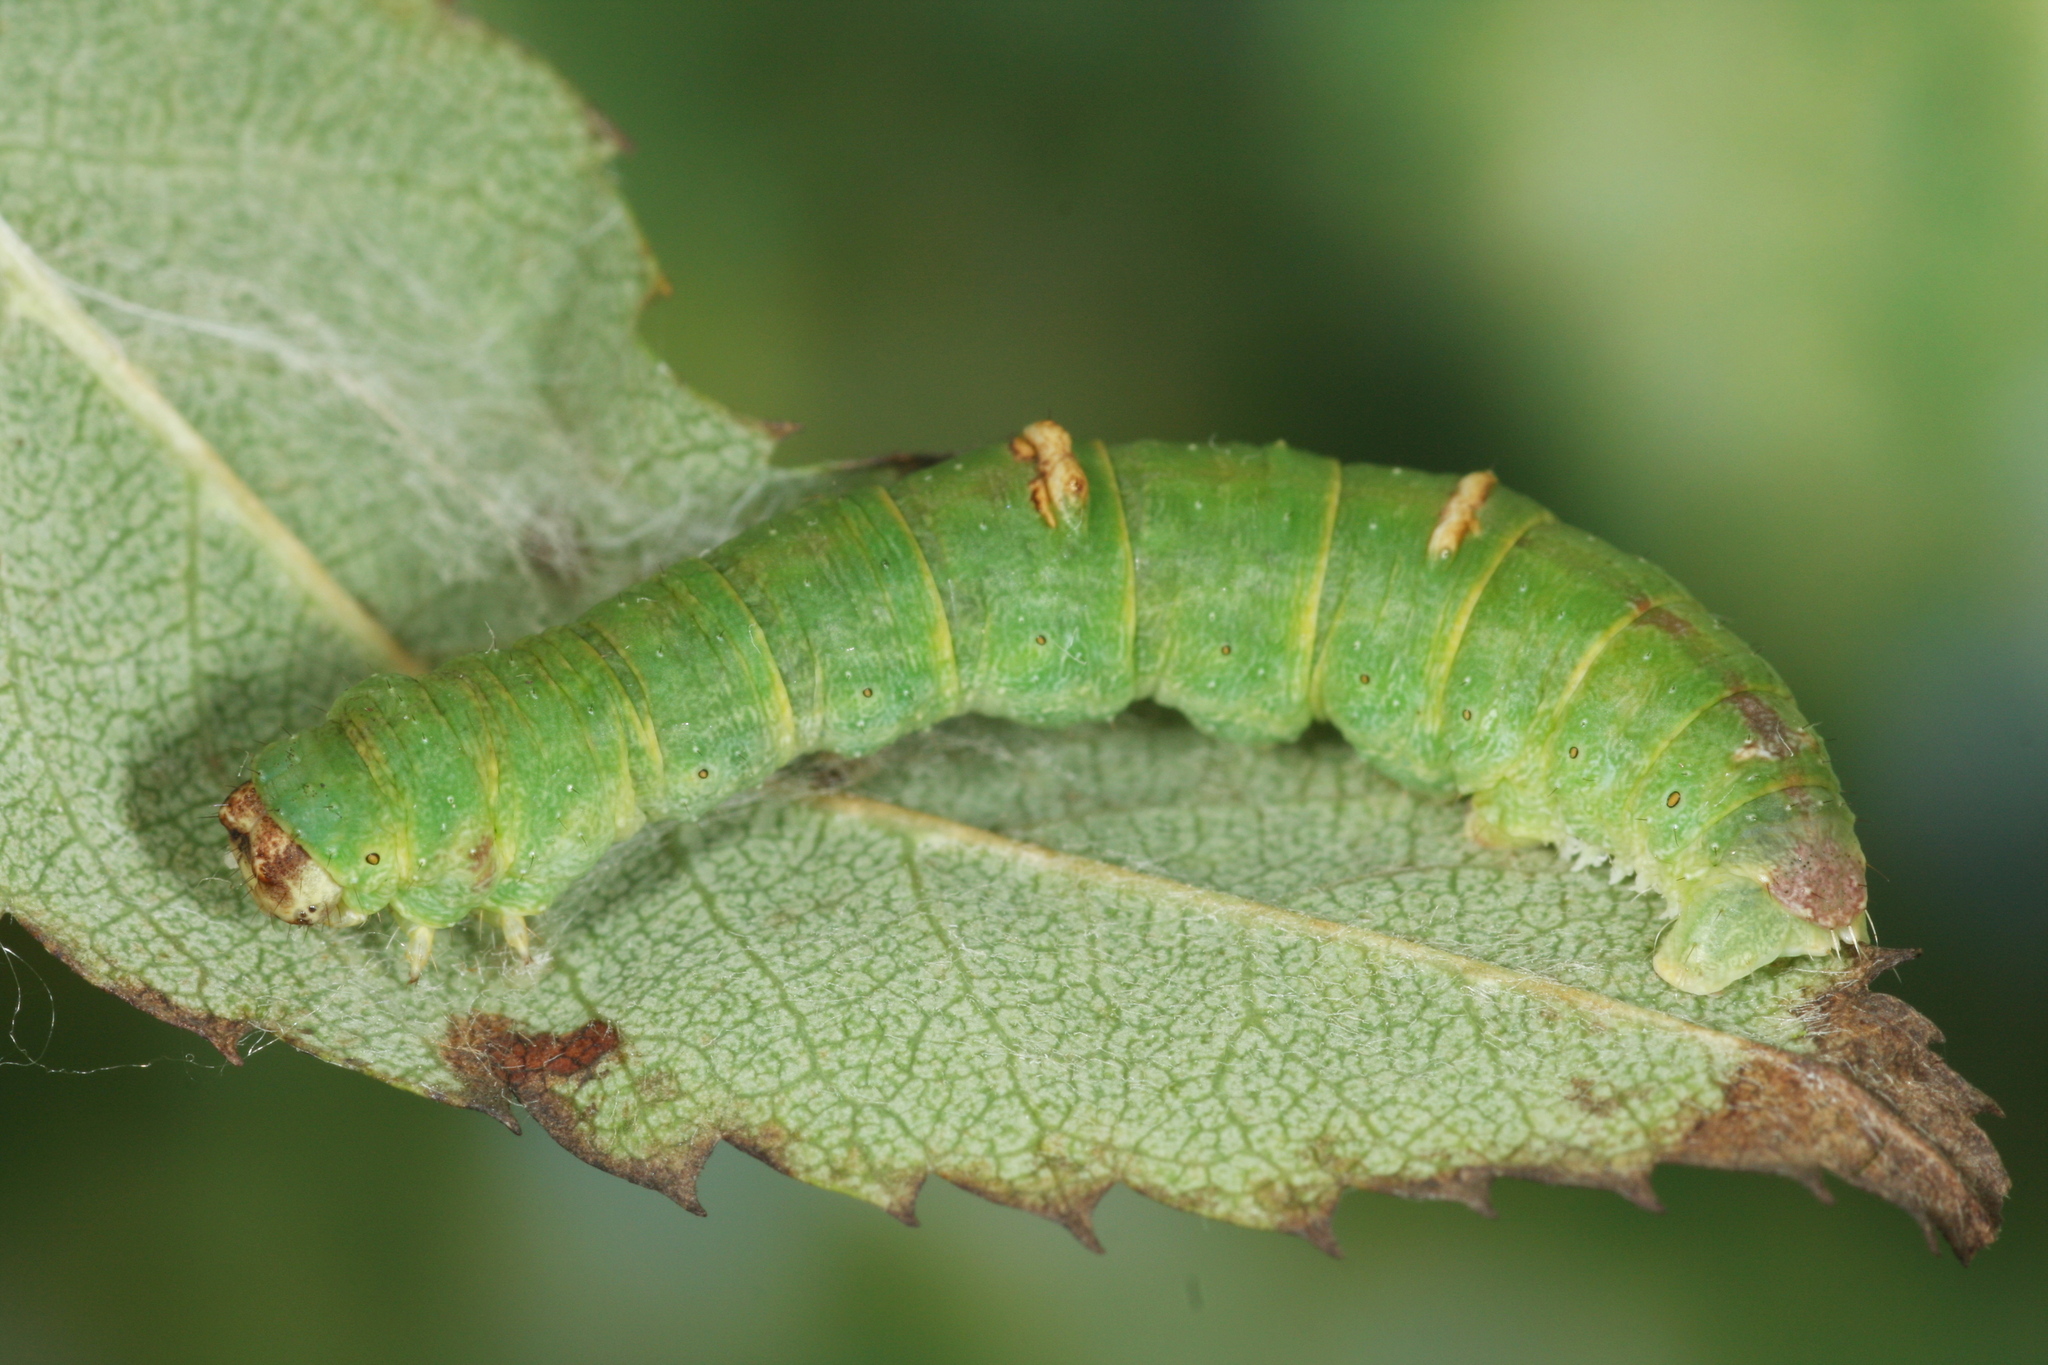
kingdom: Animalia
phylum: Arthropoda
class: Insecta
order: Lepidoptera
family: Geometridae
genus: Opisthograptis
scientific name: Opisthograptis luteolata
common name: Brimstone moth
